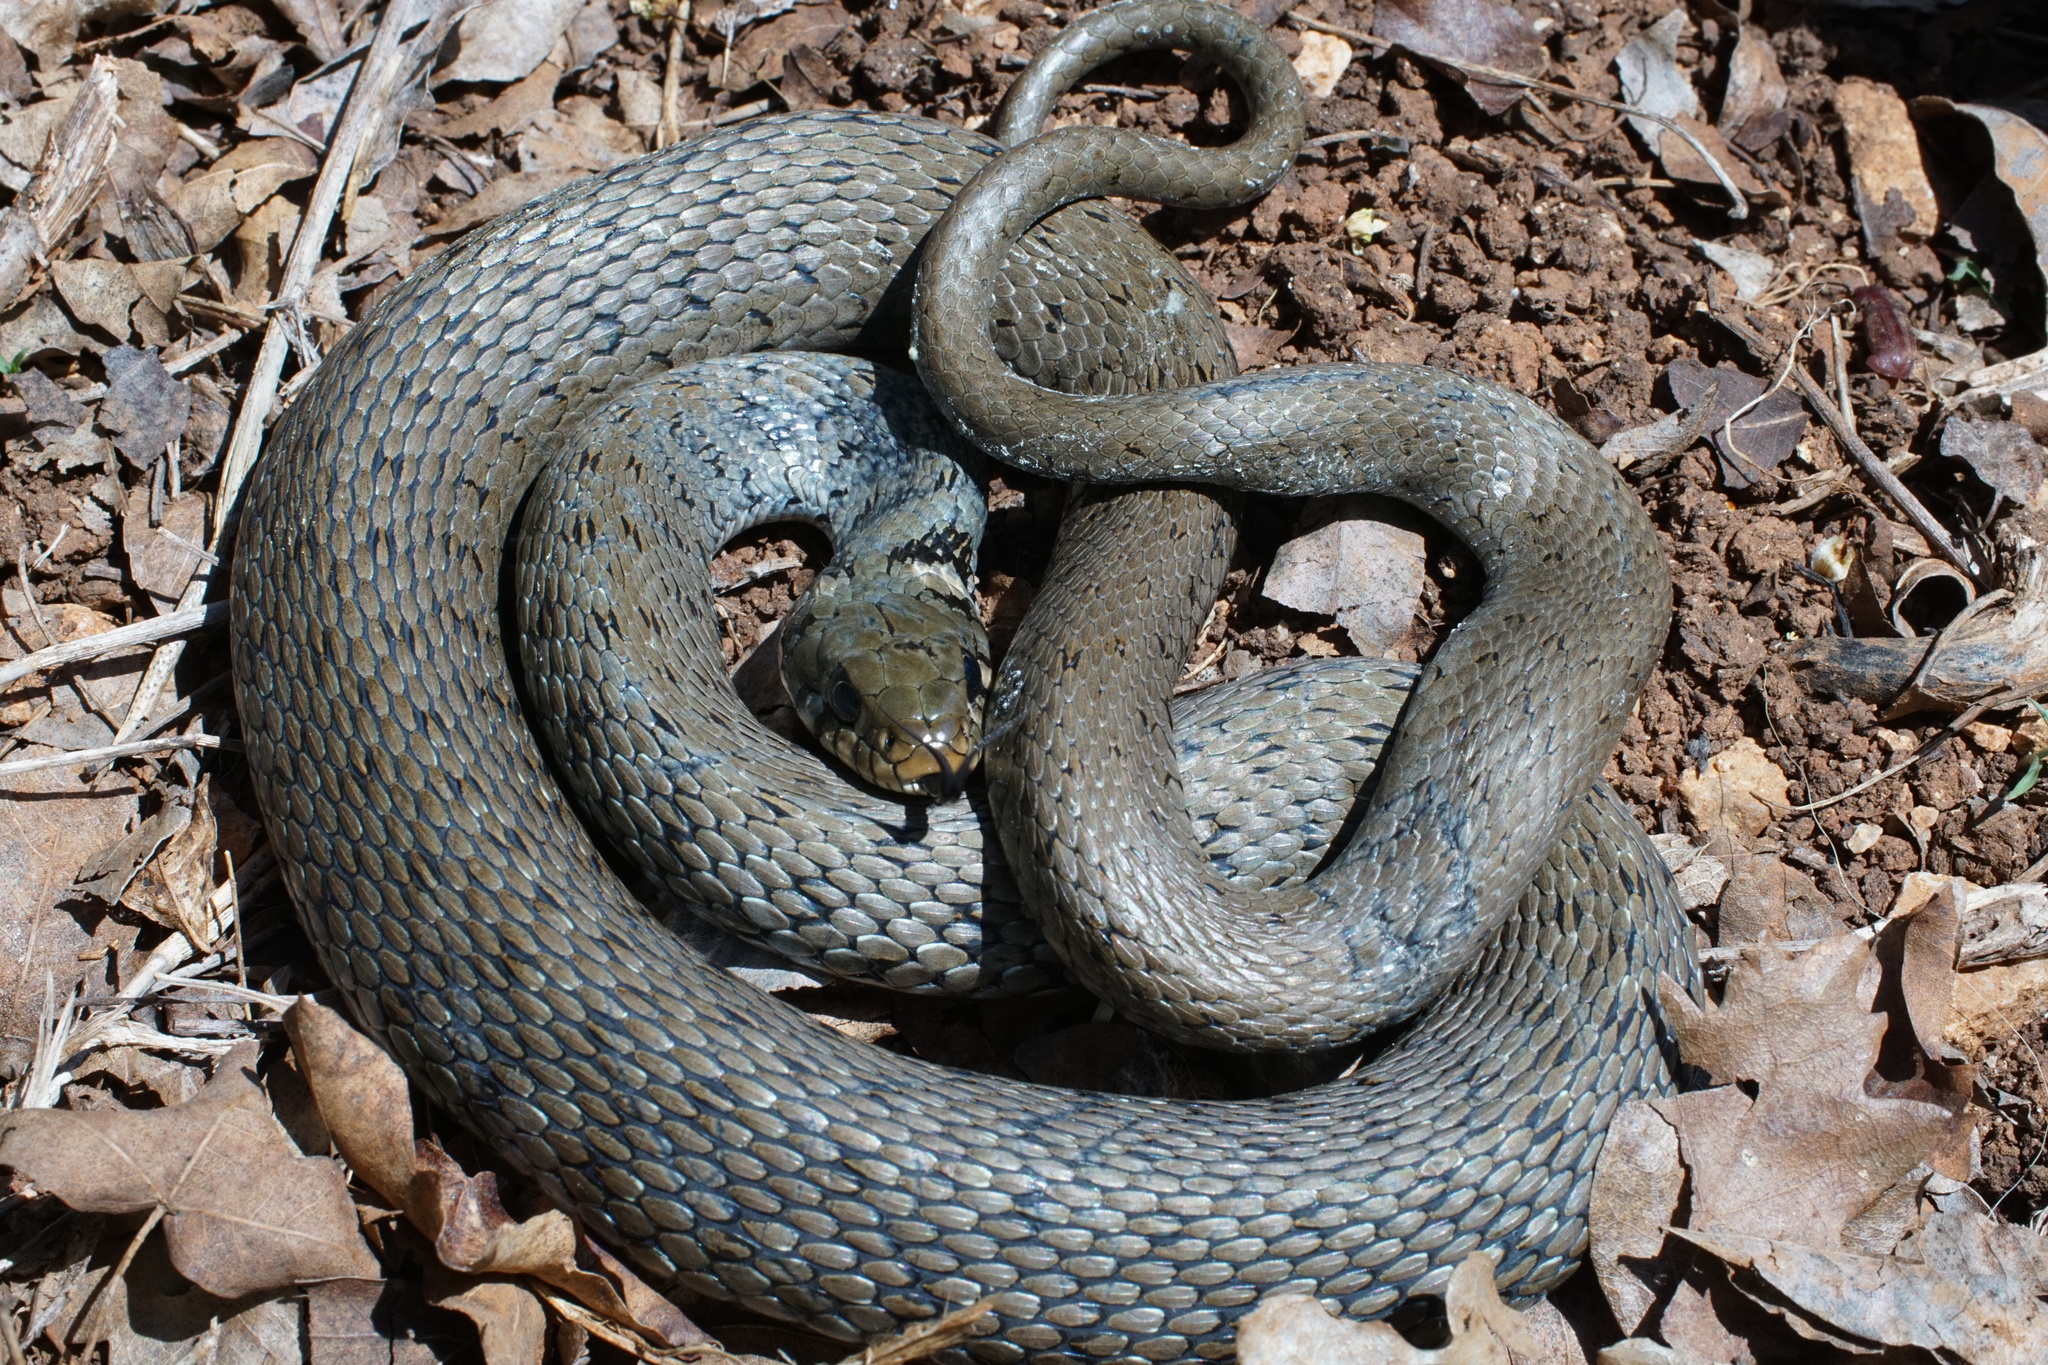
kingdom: Animalia
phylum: Chordata
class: Squamata
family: Colubridae
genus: Natrix
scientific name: Natrix natrix
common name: Grass snake
